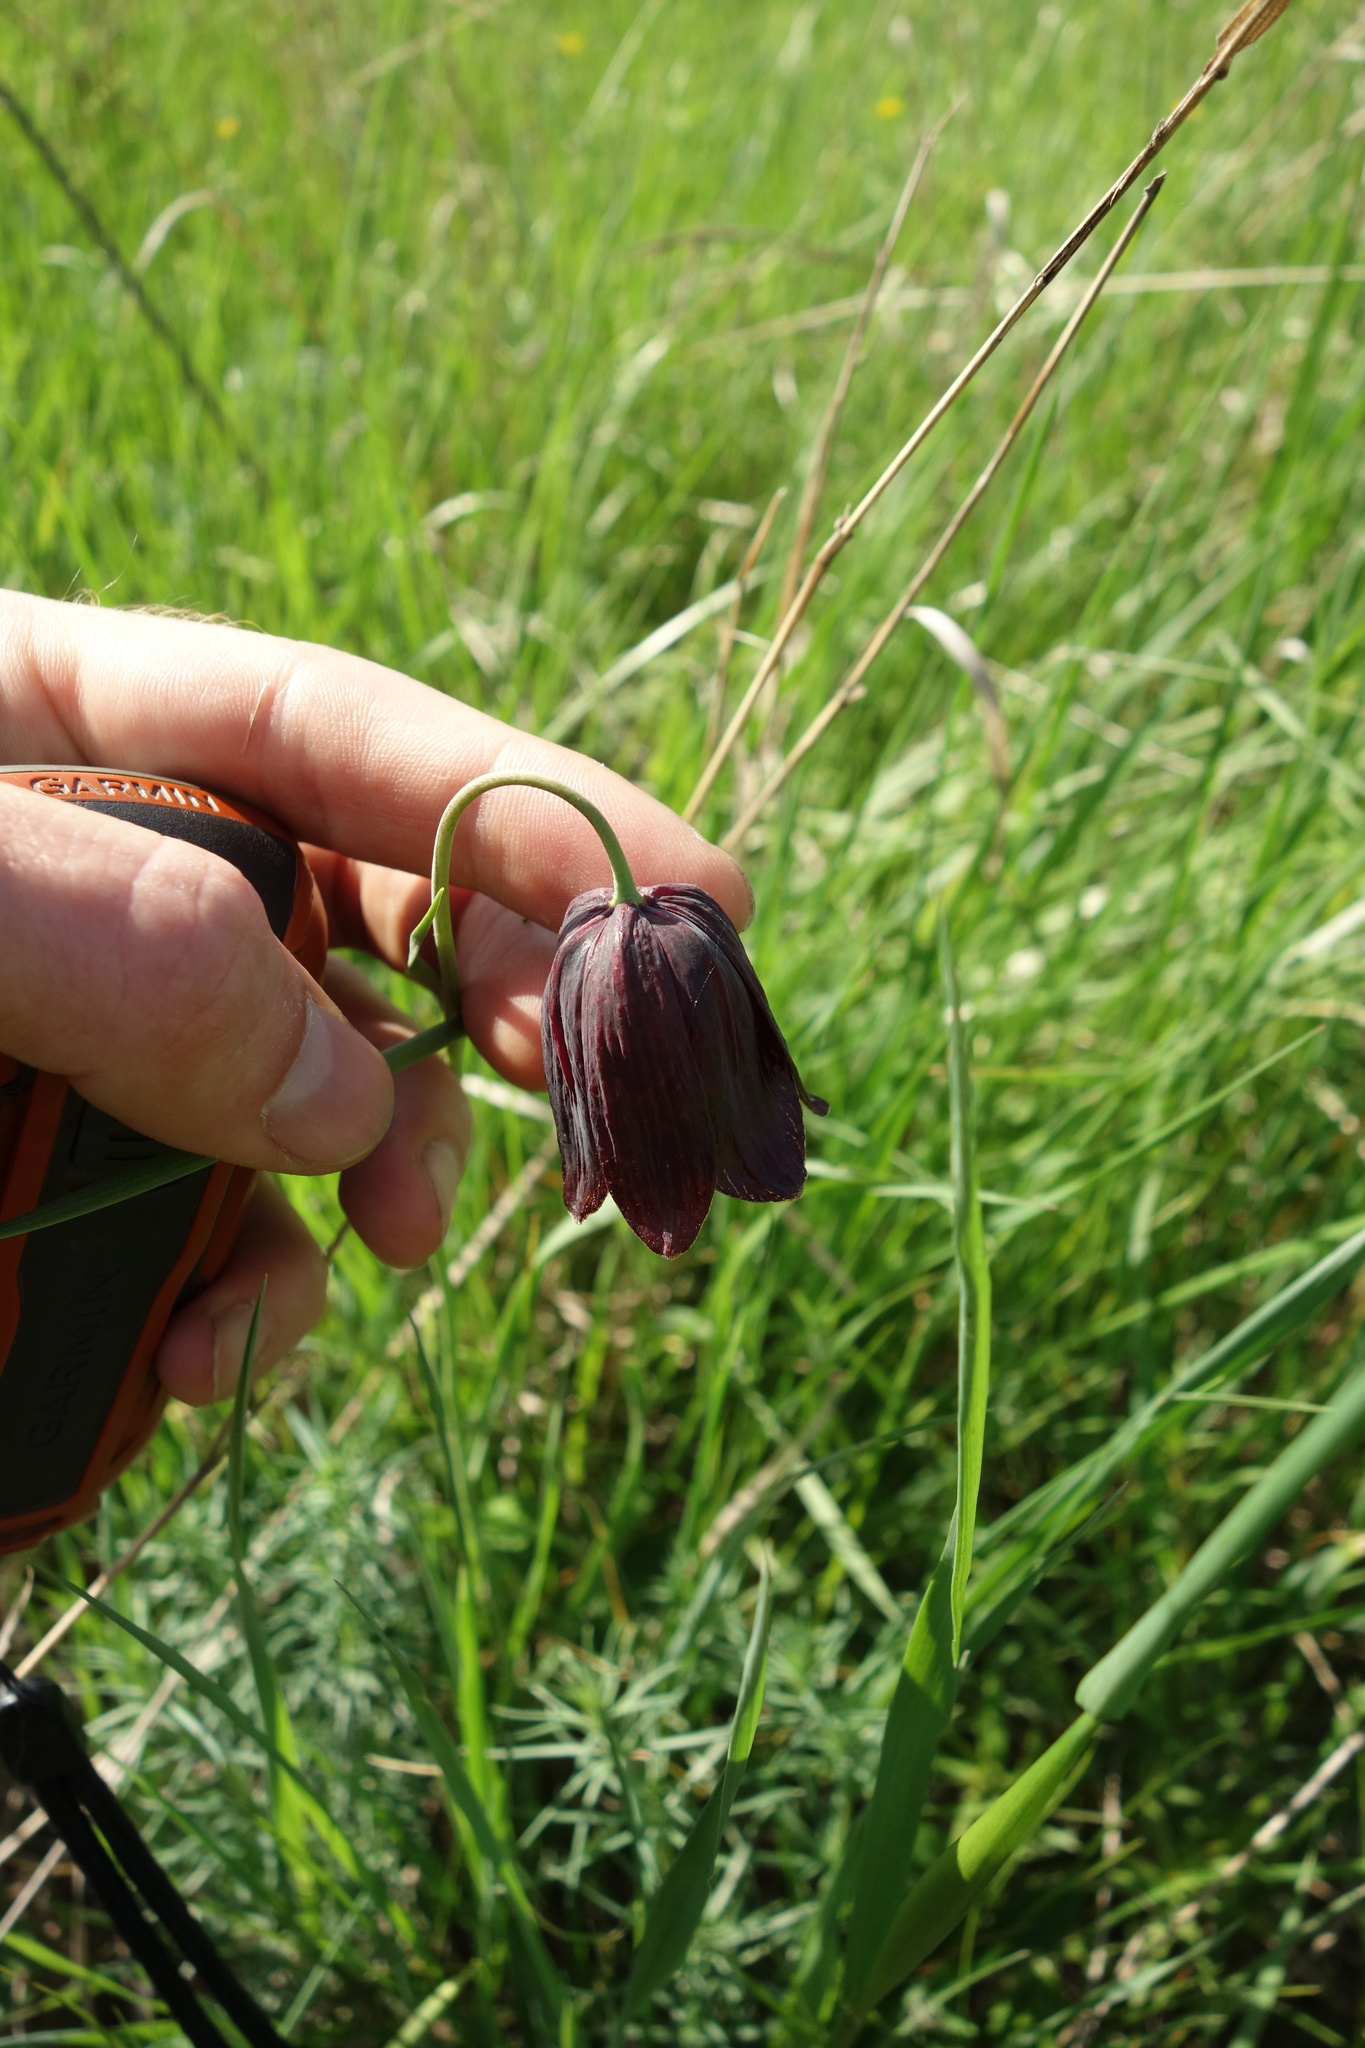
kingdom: Plantae
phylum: Tracheophyta
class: Liliopsida
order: Liliales
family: Liliaceae
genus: Fritillaria
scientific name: Fritillaria meleagroides
